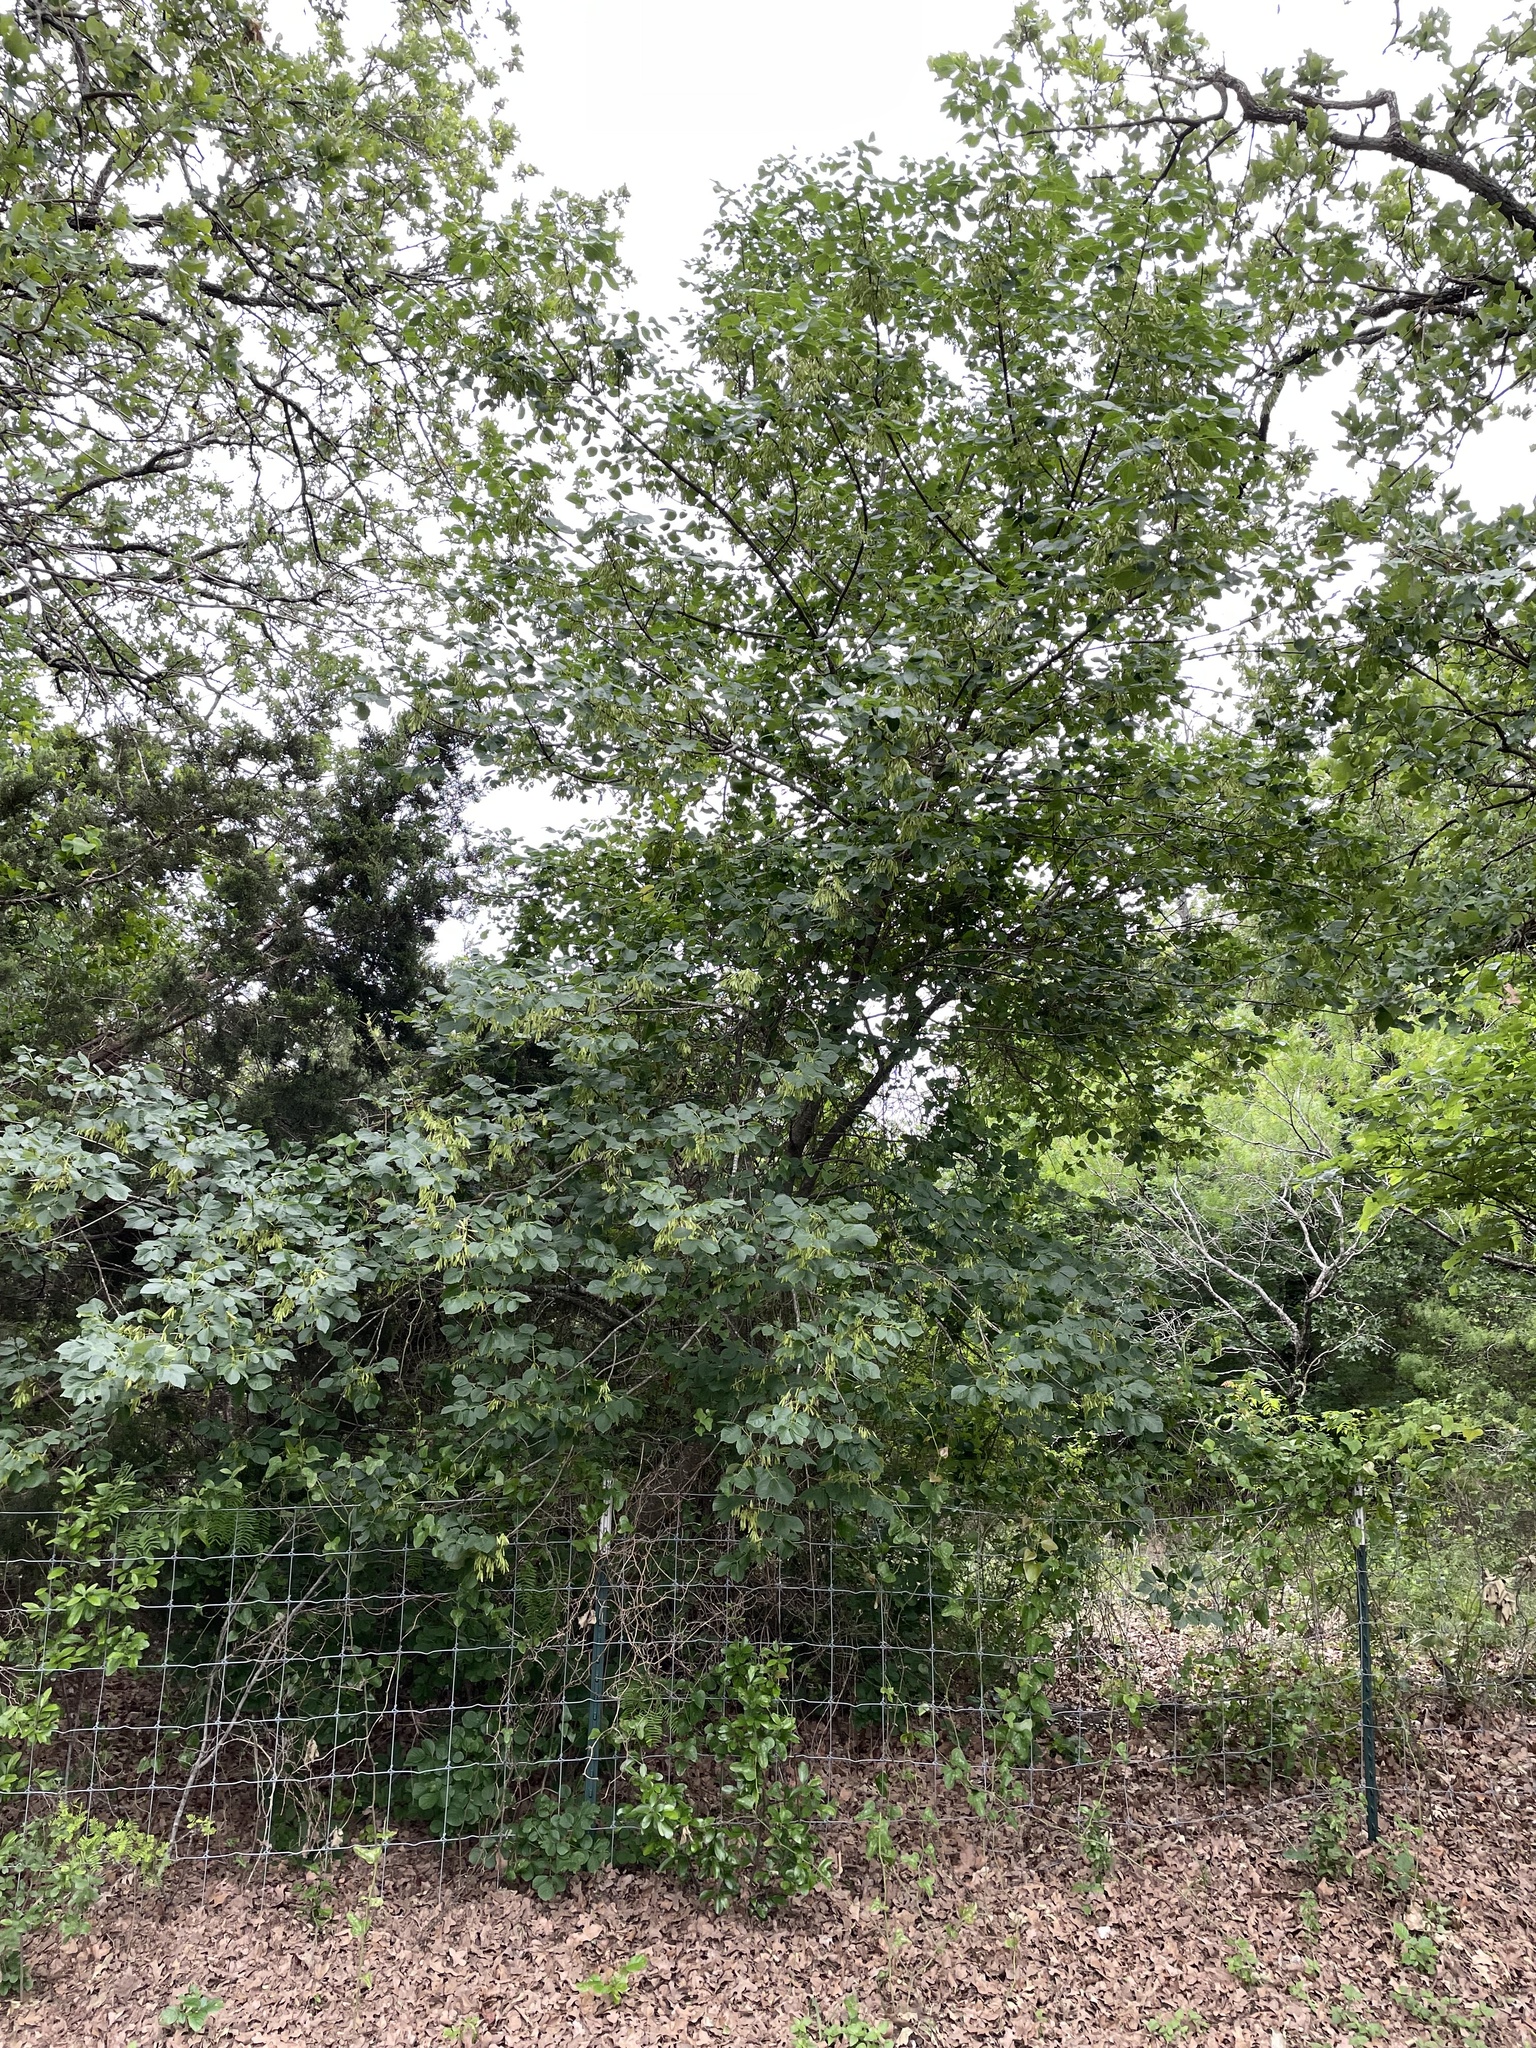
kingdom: Plantae
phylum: Tracheophyta
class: Magnoliopsida
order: Lamiales
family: Oleaceae
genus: Fraxinus
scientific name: Fraxinus albicans
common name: Texas ash
